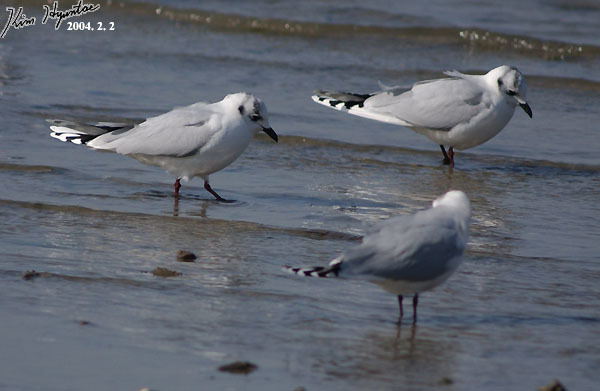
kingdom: Animalia
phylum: Chordata
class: Aves
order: Charadriiformes
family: Laridae
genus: Chroicocephalus
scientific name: Chroicocephalus saundersi
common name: Saunders's gull
